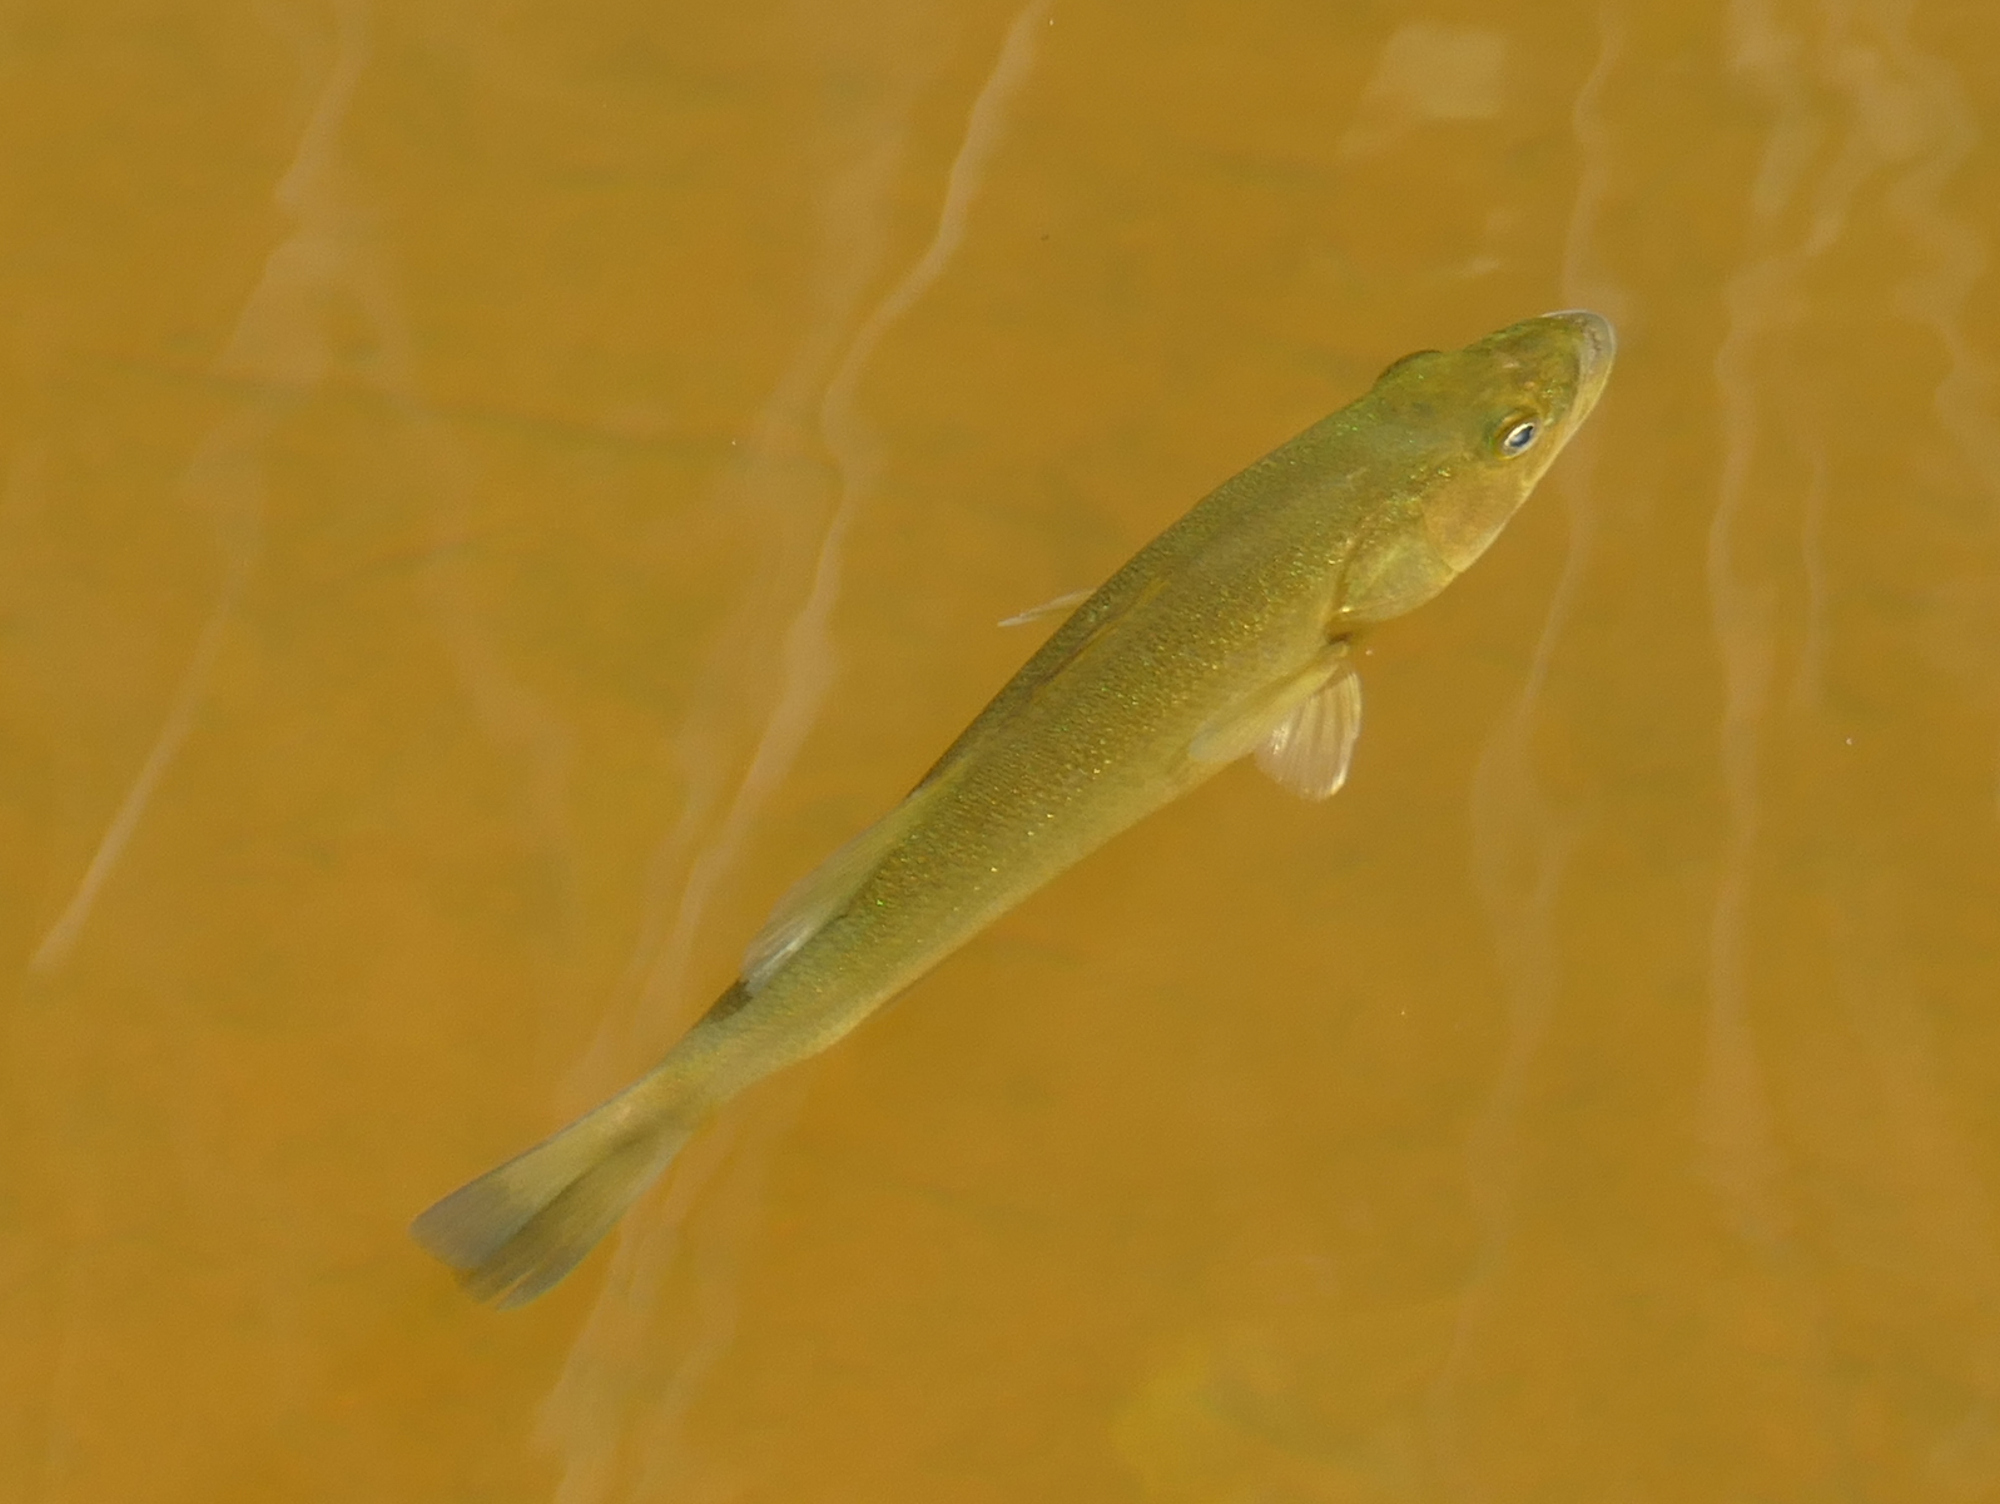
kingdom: Animalia
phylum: Chordata
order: Perciformes
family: Centrarchidae
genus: Micropterus
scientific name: Micropterus
